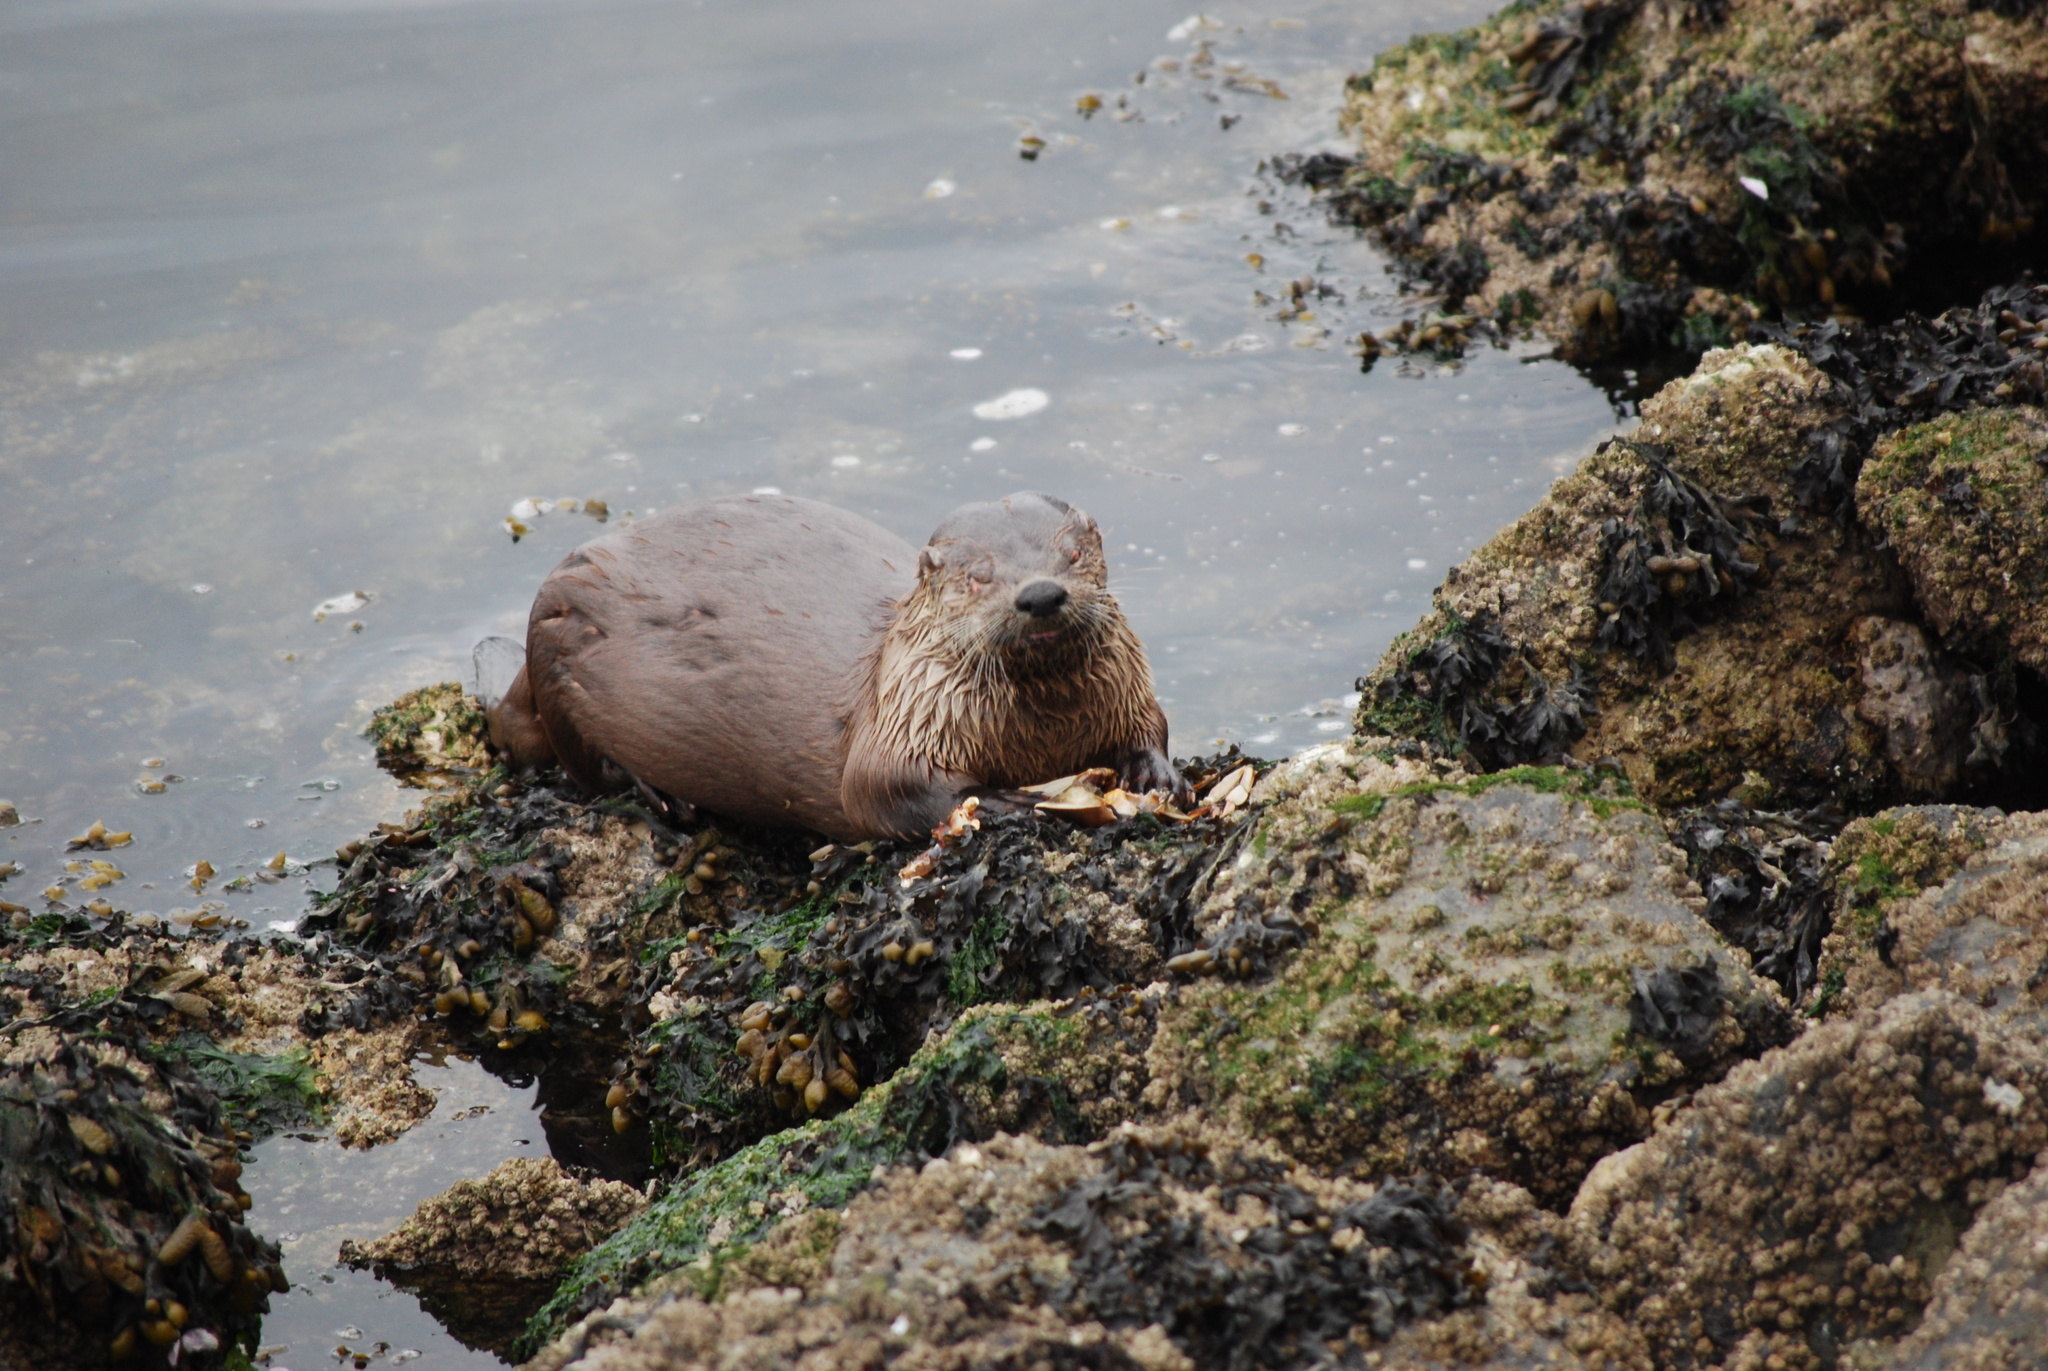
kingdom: Animalia
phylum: Chordata
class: Mammalia
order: Carnivora
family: Mustelidae
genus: Lontra
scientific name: Lontra canadensis
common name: North american river otter
